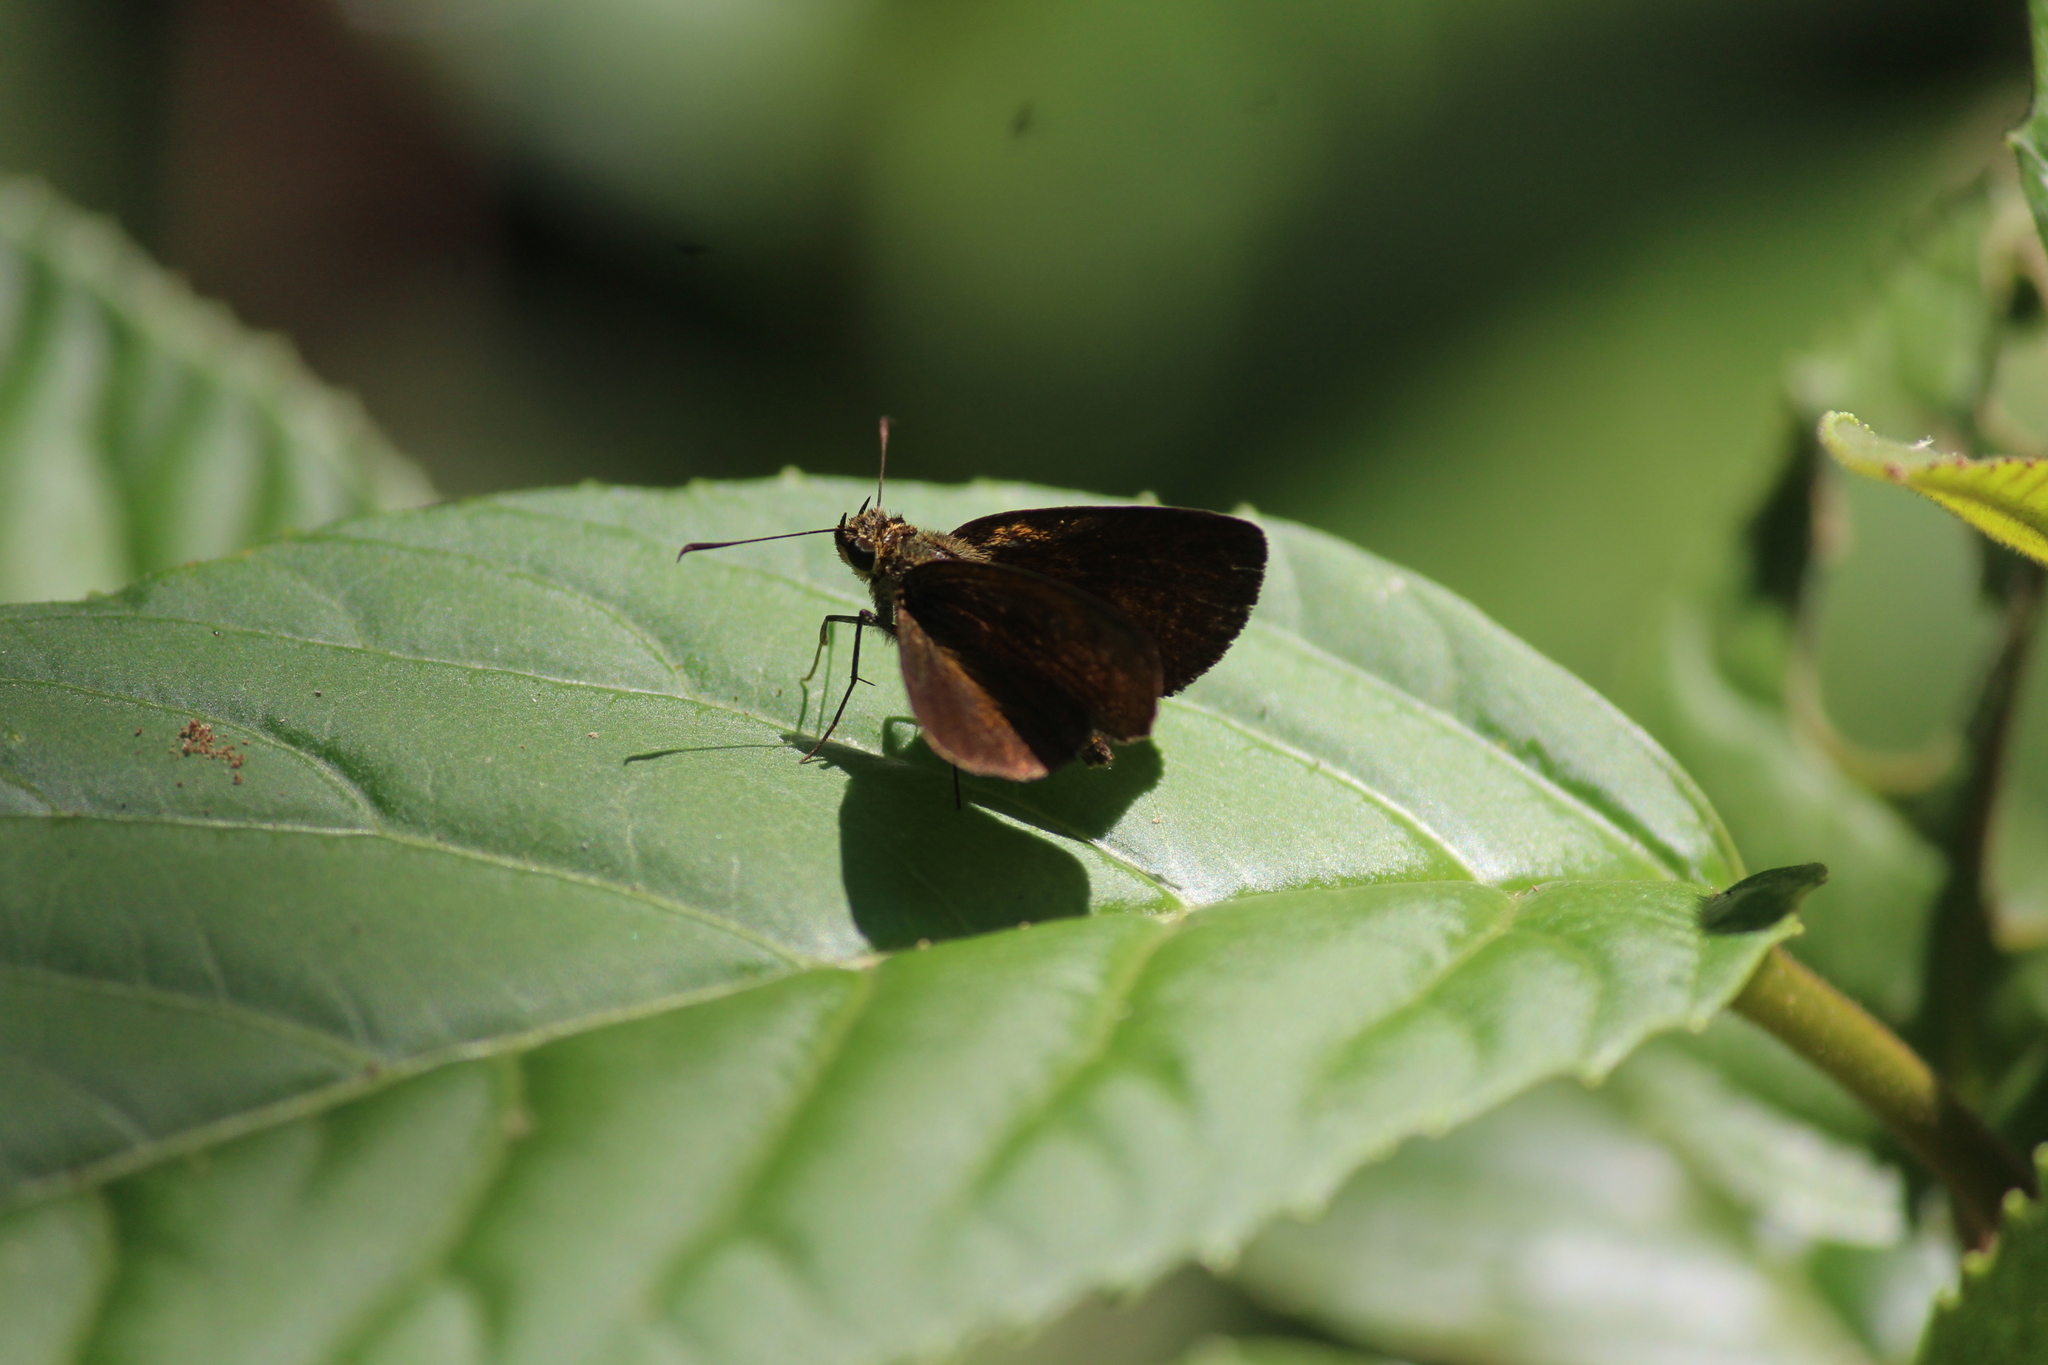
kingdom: Animalia
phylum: Arthropoda
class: Insecta
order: Lepidoptera
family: Hesperiidae
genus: Thoressa
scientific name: Thoressa astigmata
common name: Southern spotted ace
